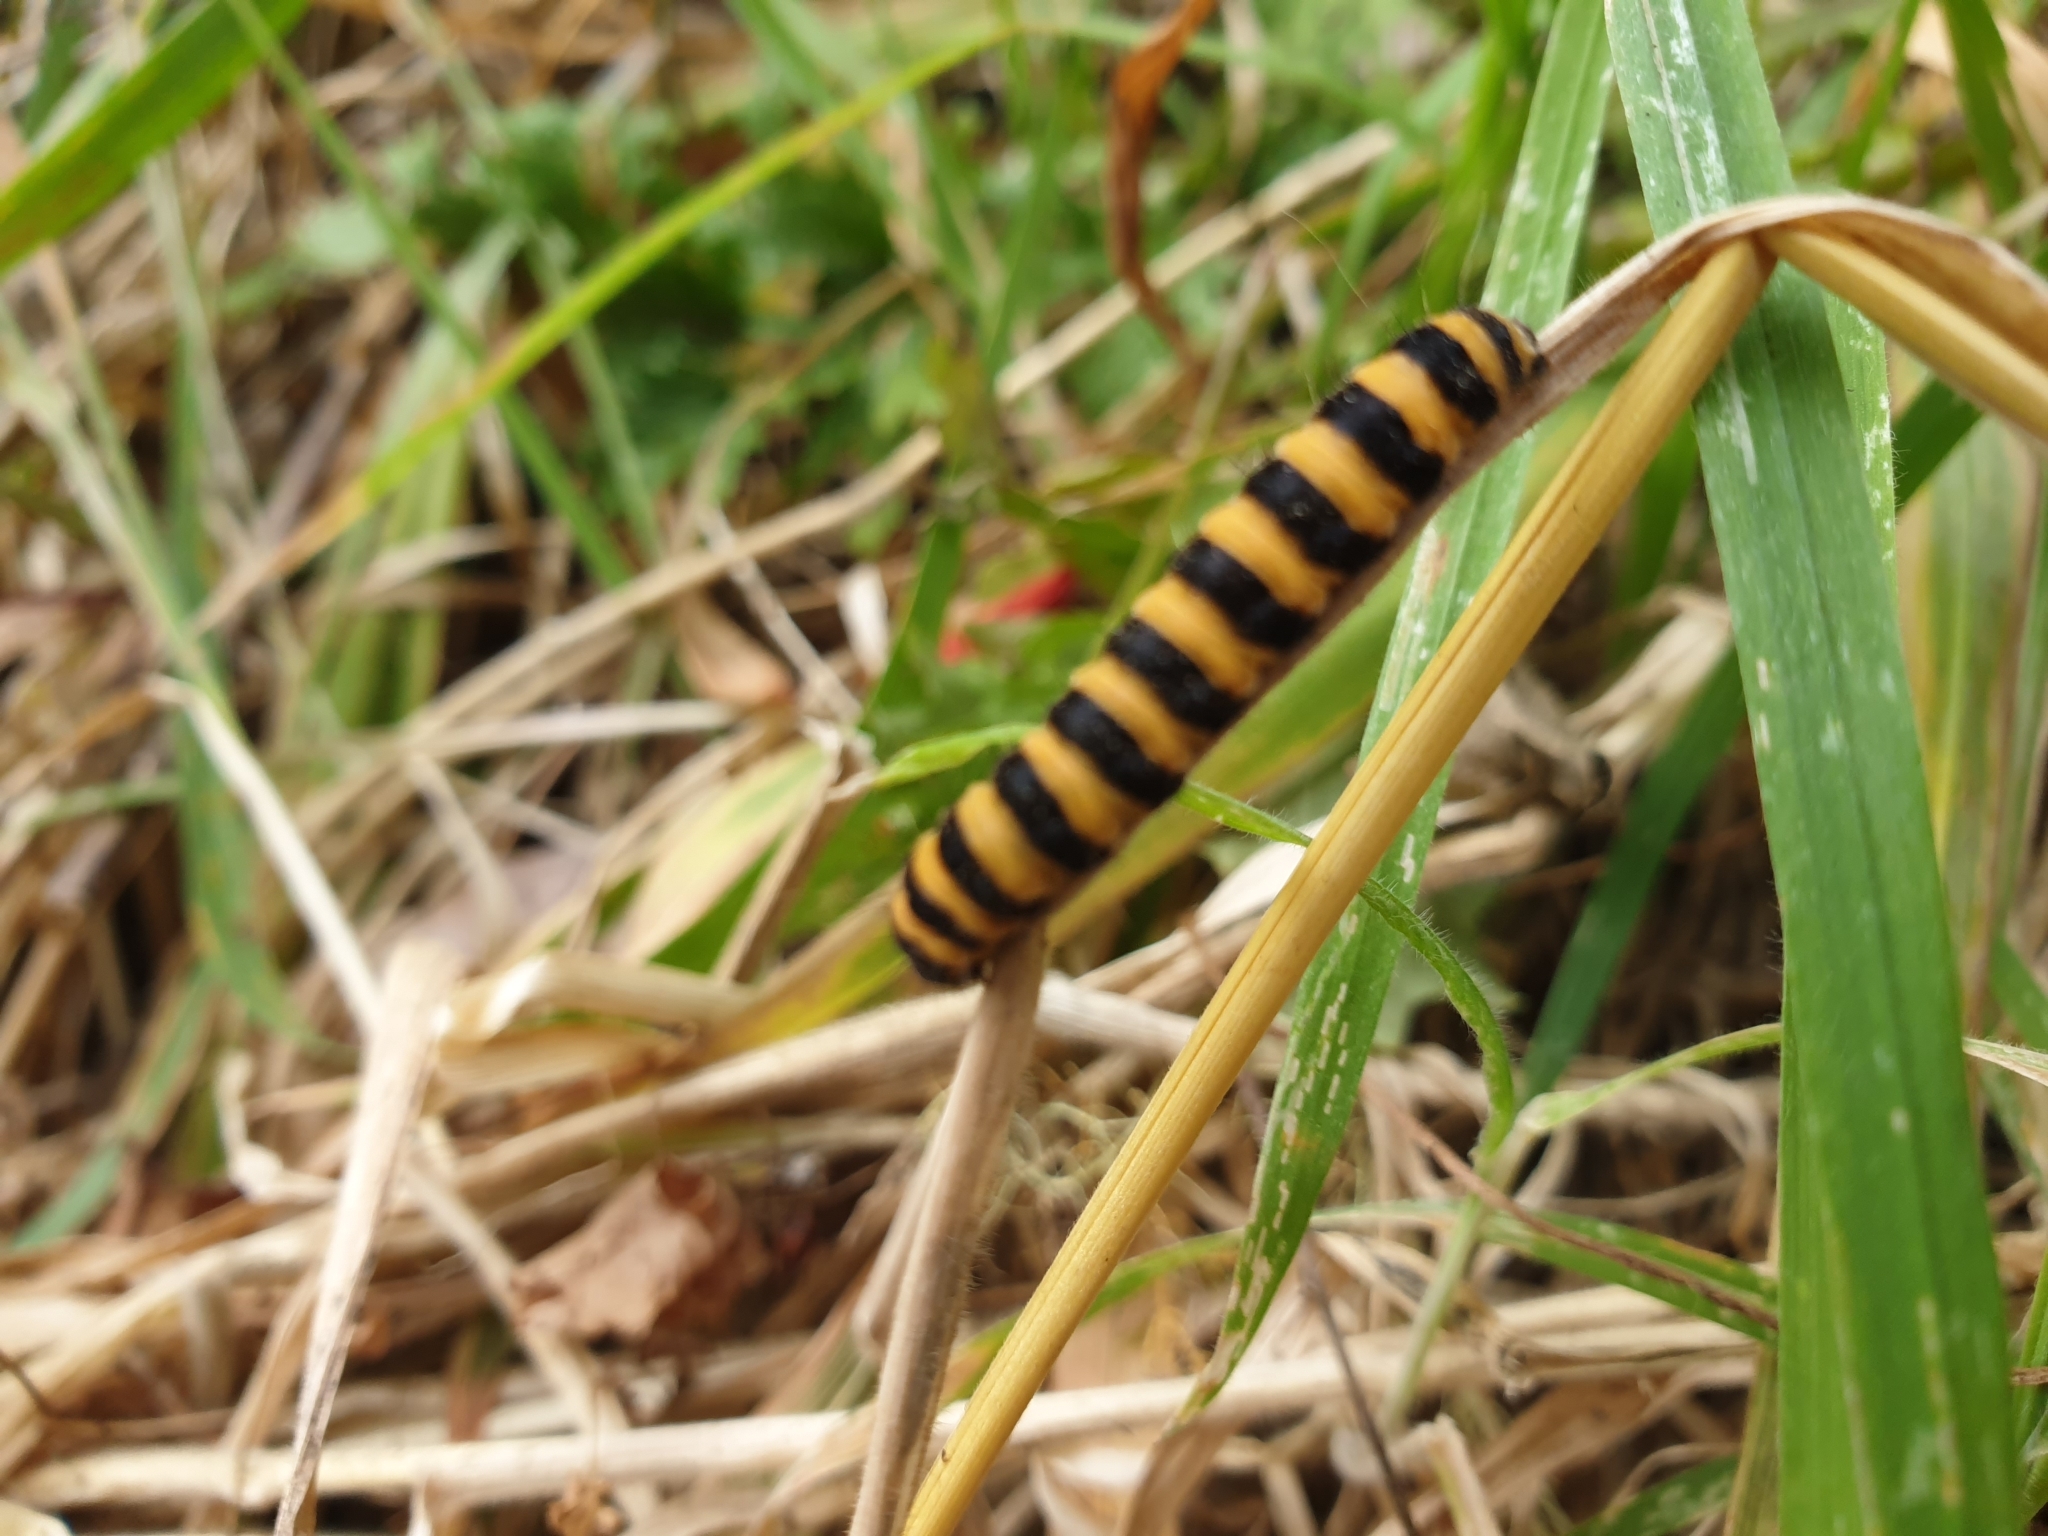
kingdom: Animalia
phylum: Arthropoda
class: Insecta
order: Lepidoptera
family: Erebidae
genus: Tyria
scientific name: Tyria jacobaeae
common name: Cinnabar
